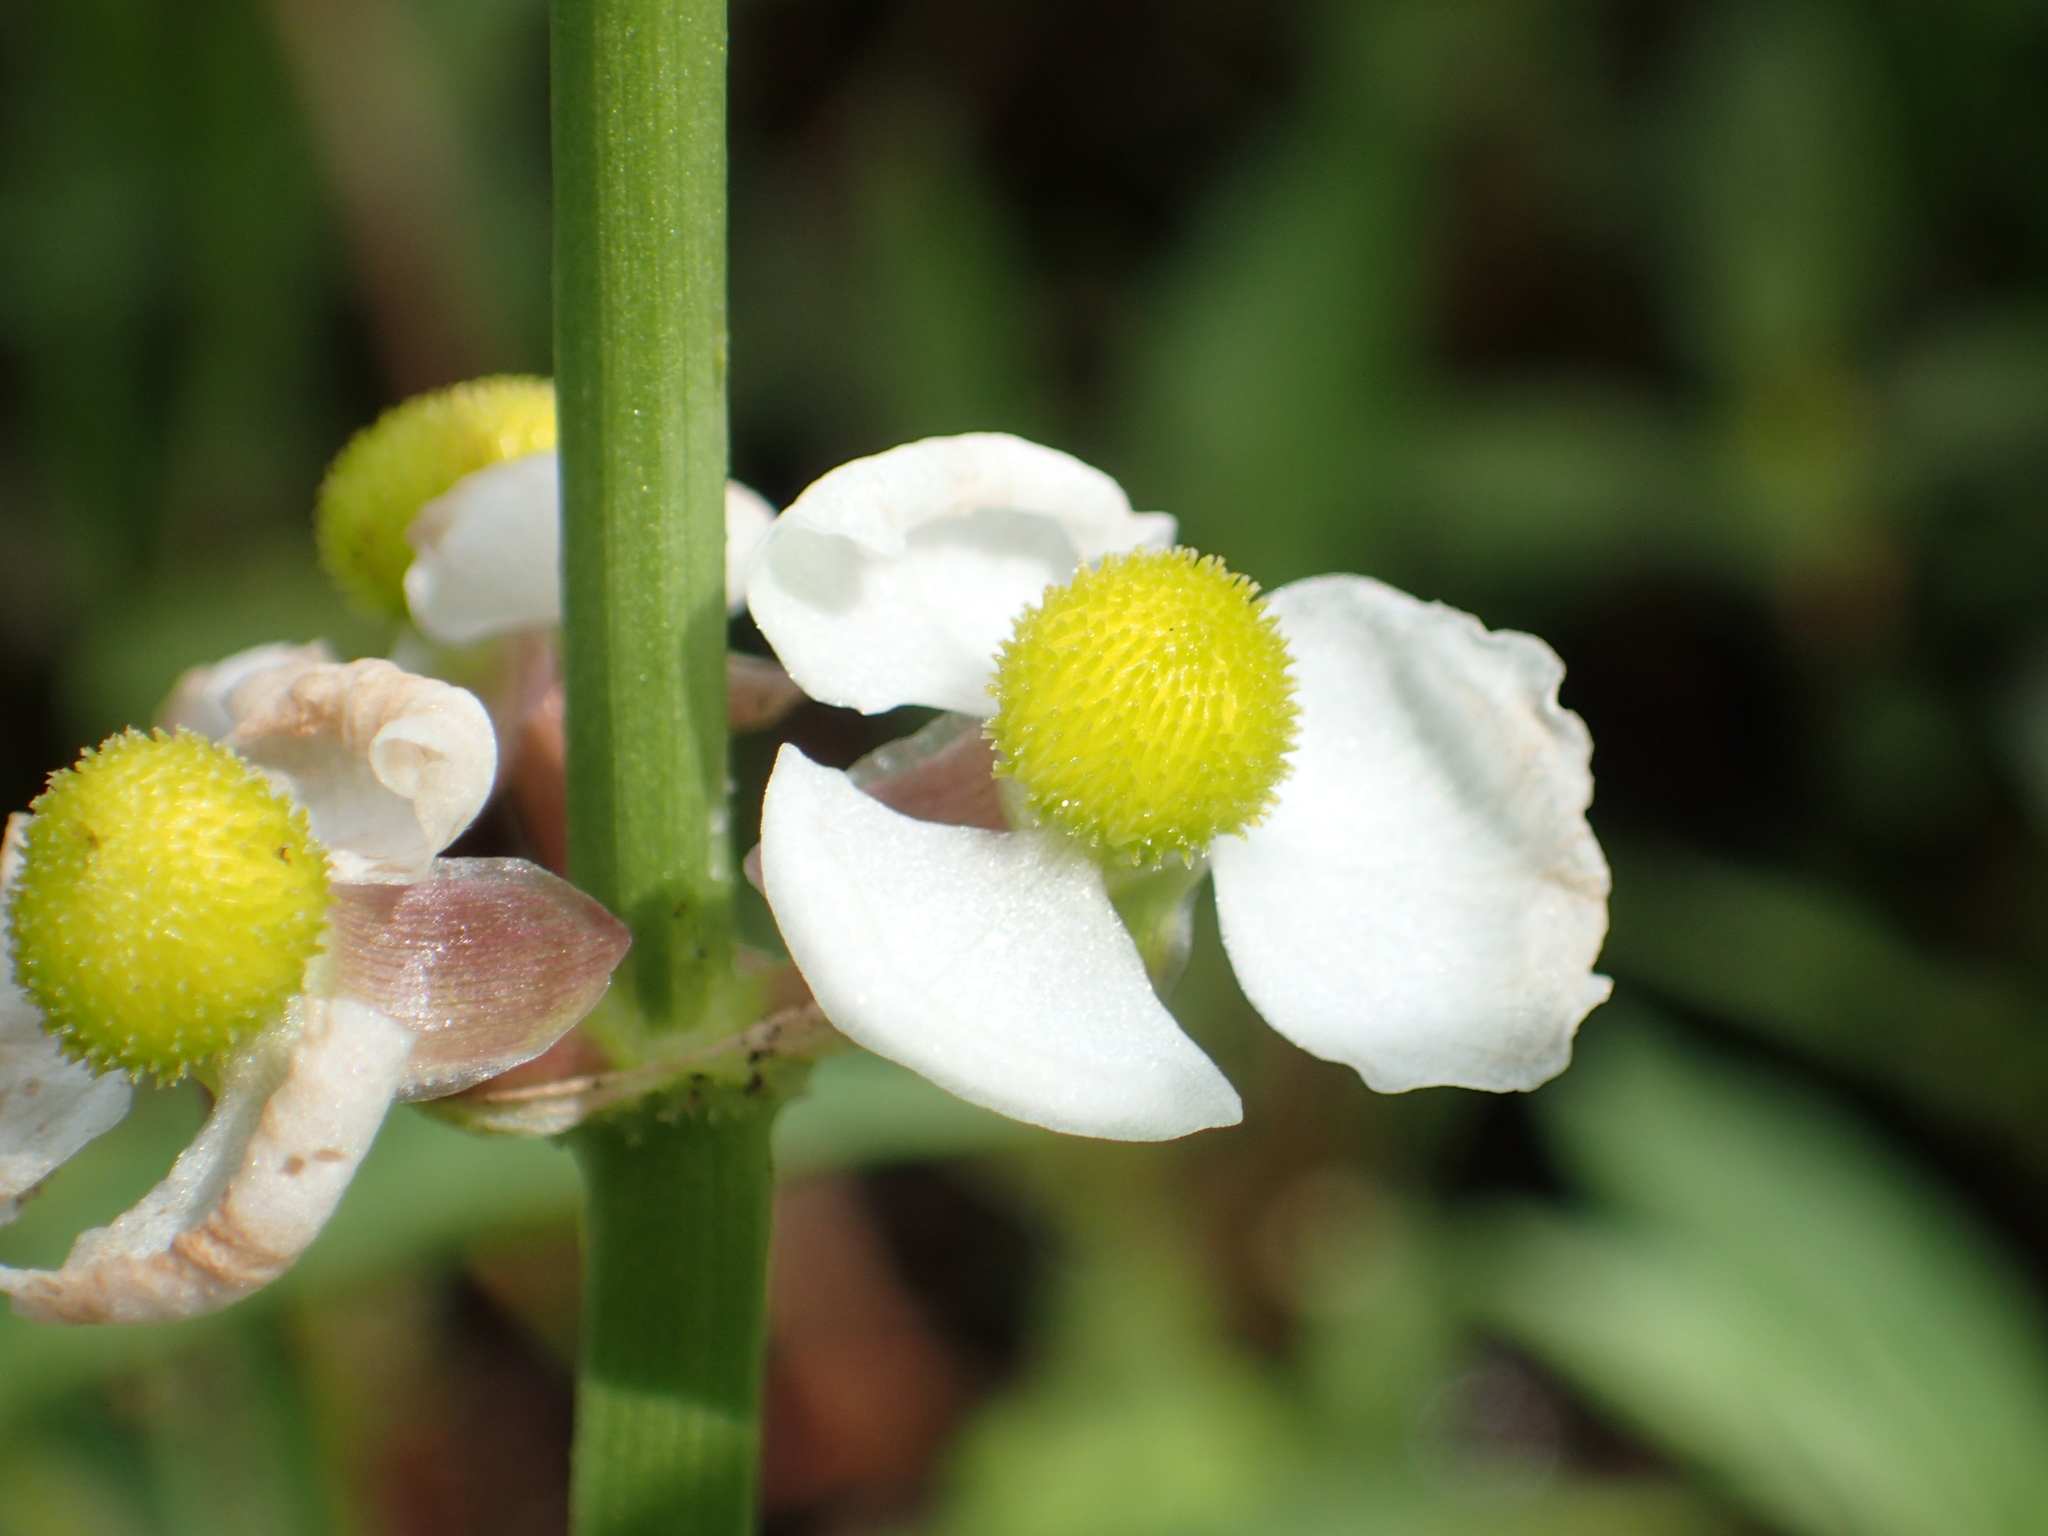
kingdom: Plantae
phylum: Tracheophyta
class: Liliopsida
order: Alismatales
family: Alismataceae
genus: Sagittaria
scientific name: Sagittaria trifolia
